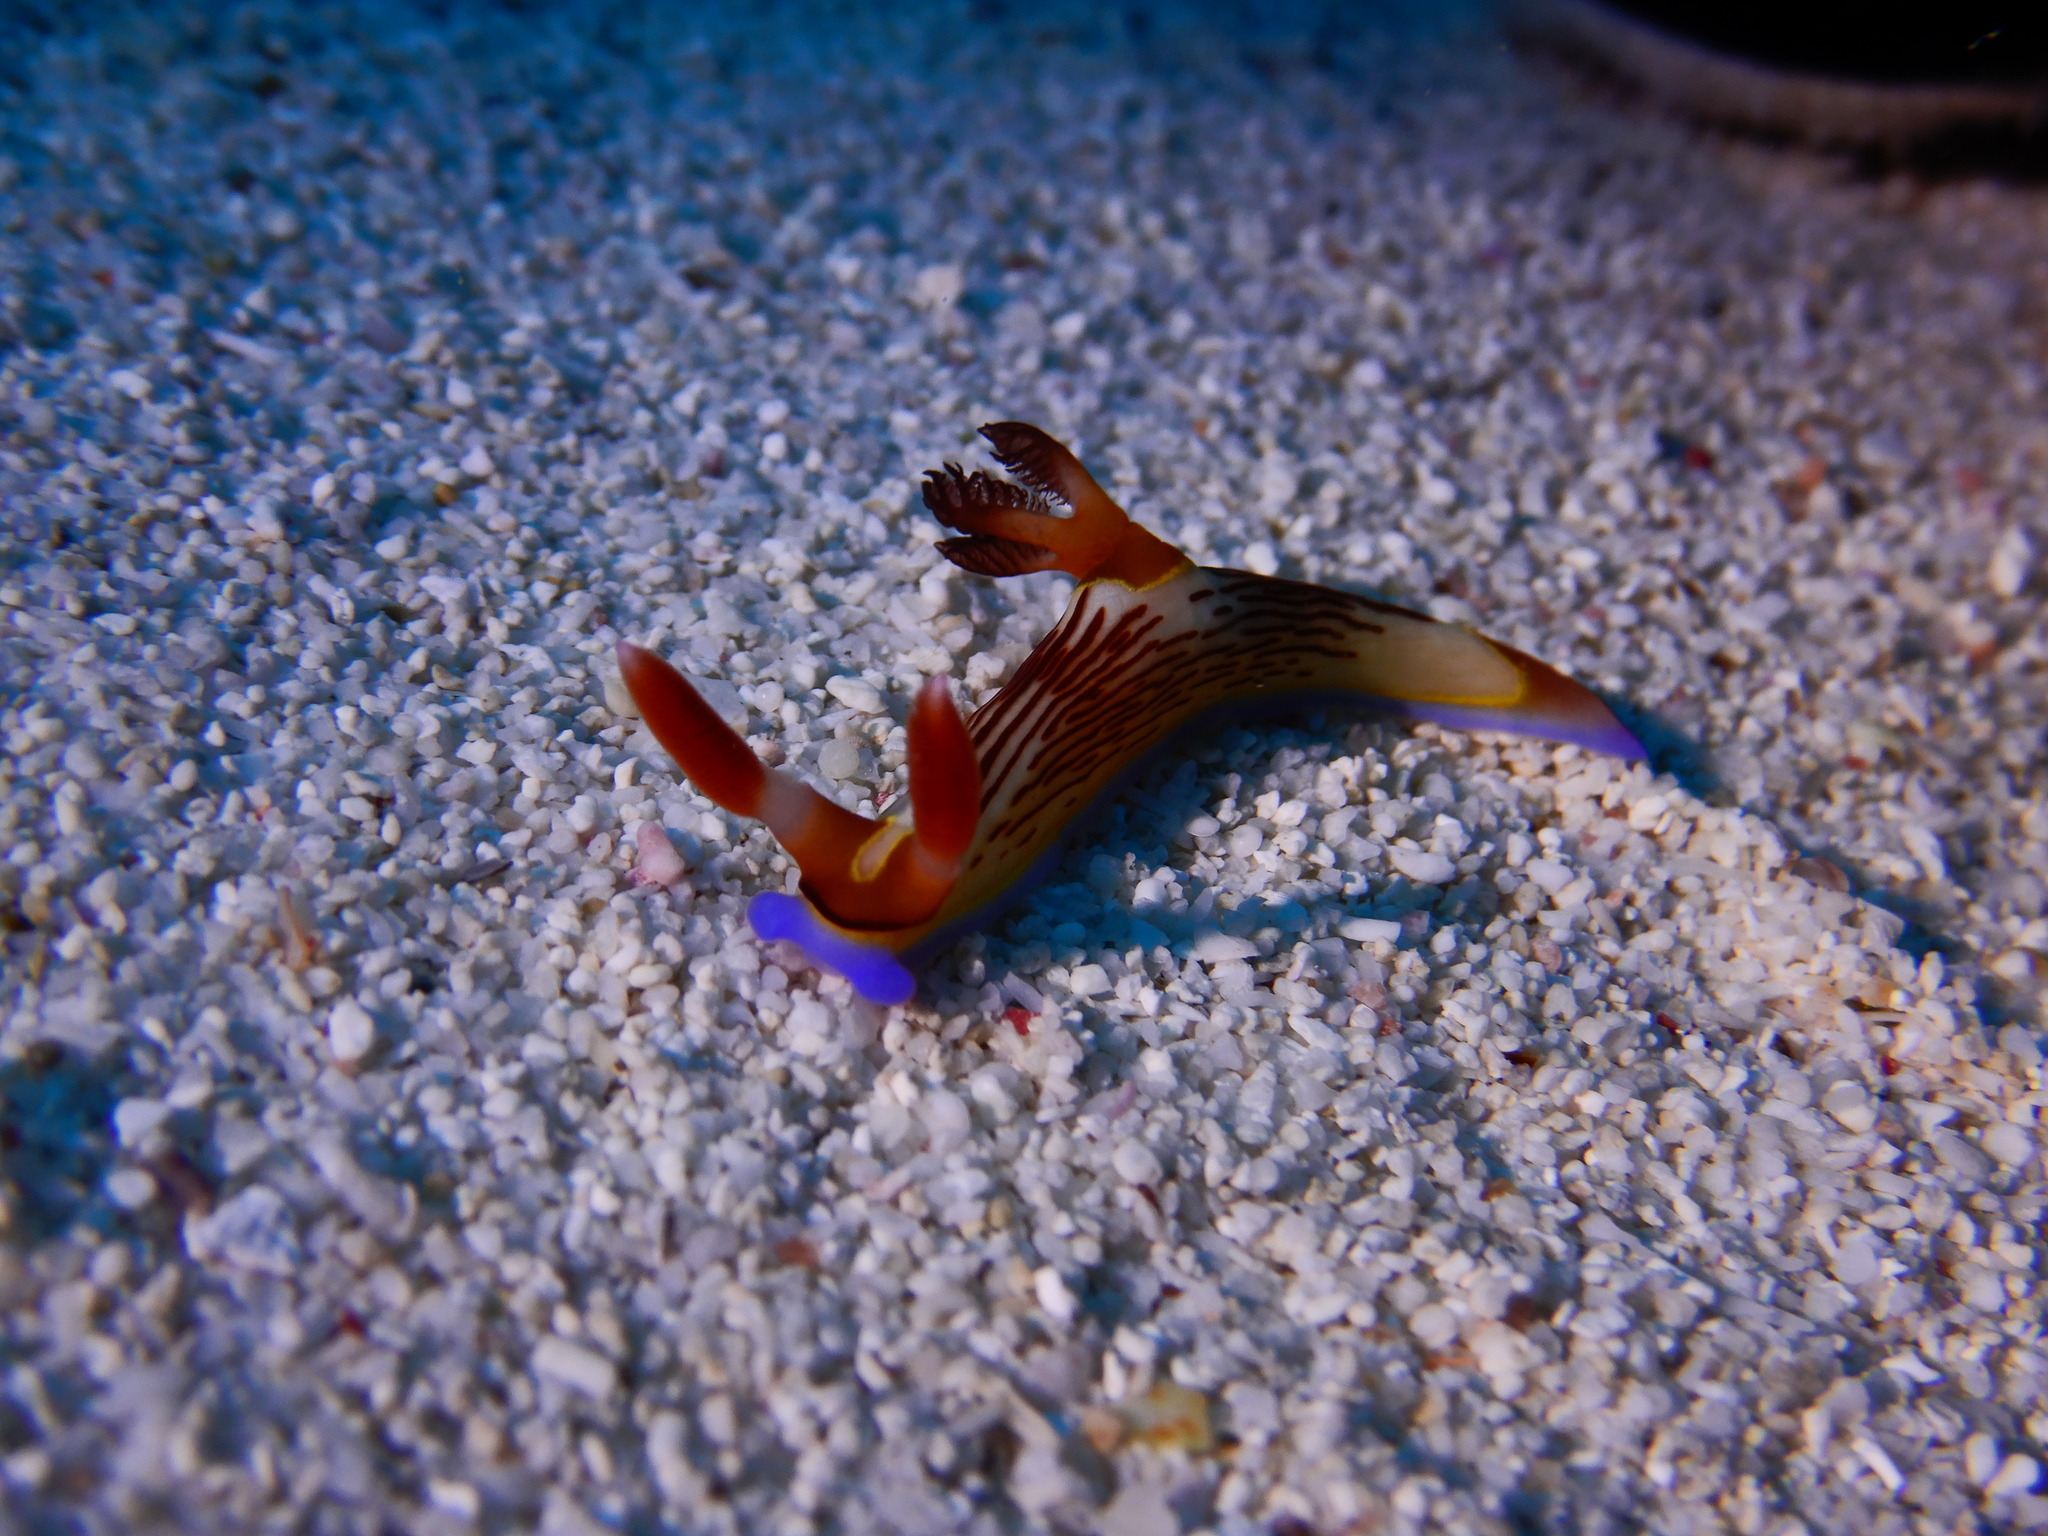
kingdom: Animalia
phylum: Mollusca
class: Gastropoda
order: Nudibranchia
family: Polyceridae
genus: Nembrotha
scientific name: Nembrotha lineolata
